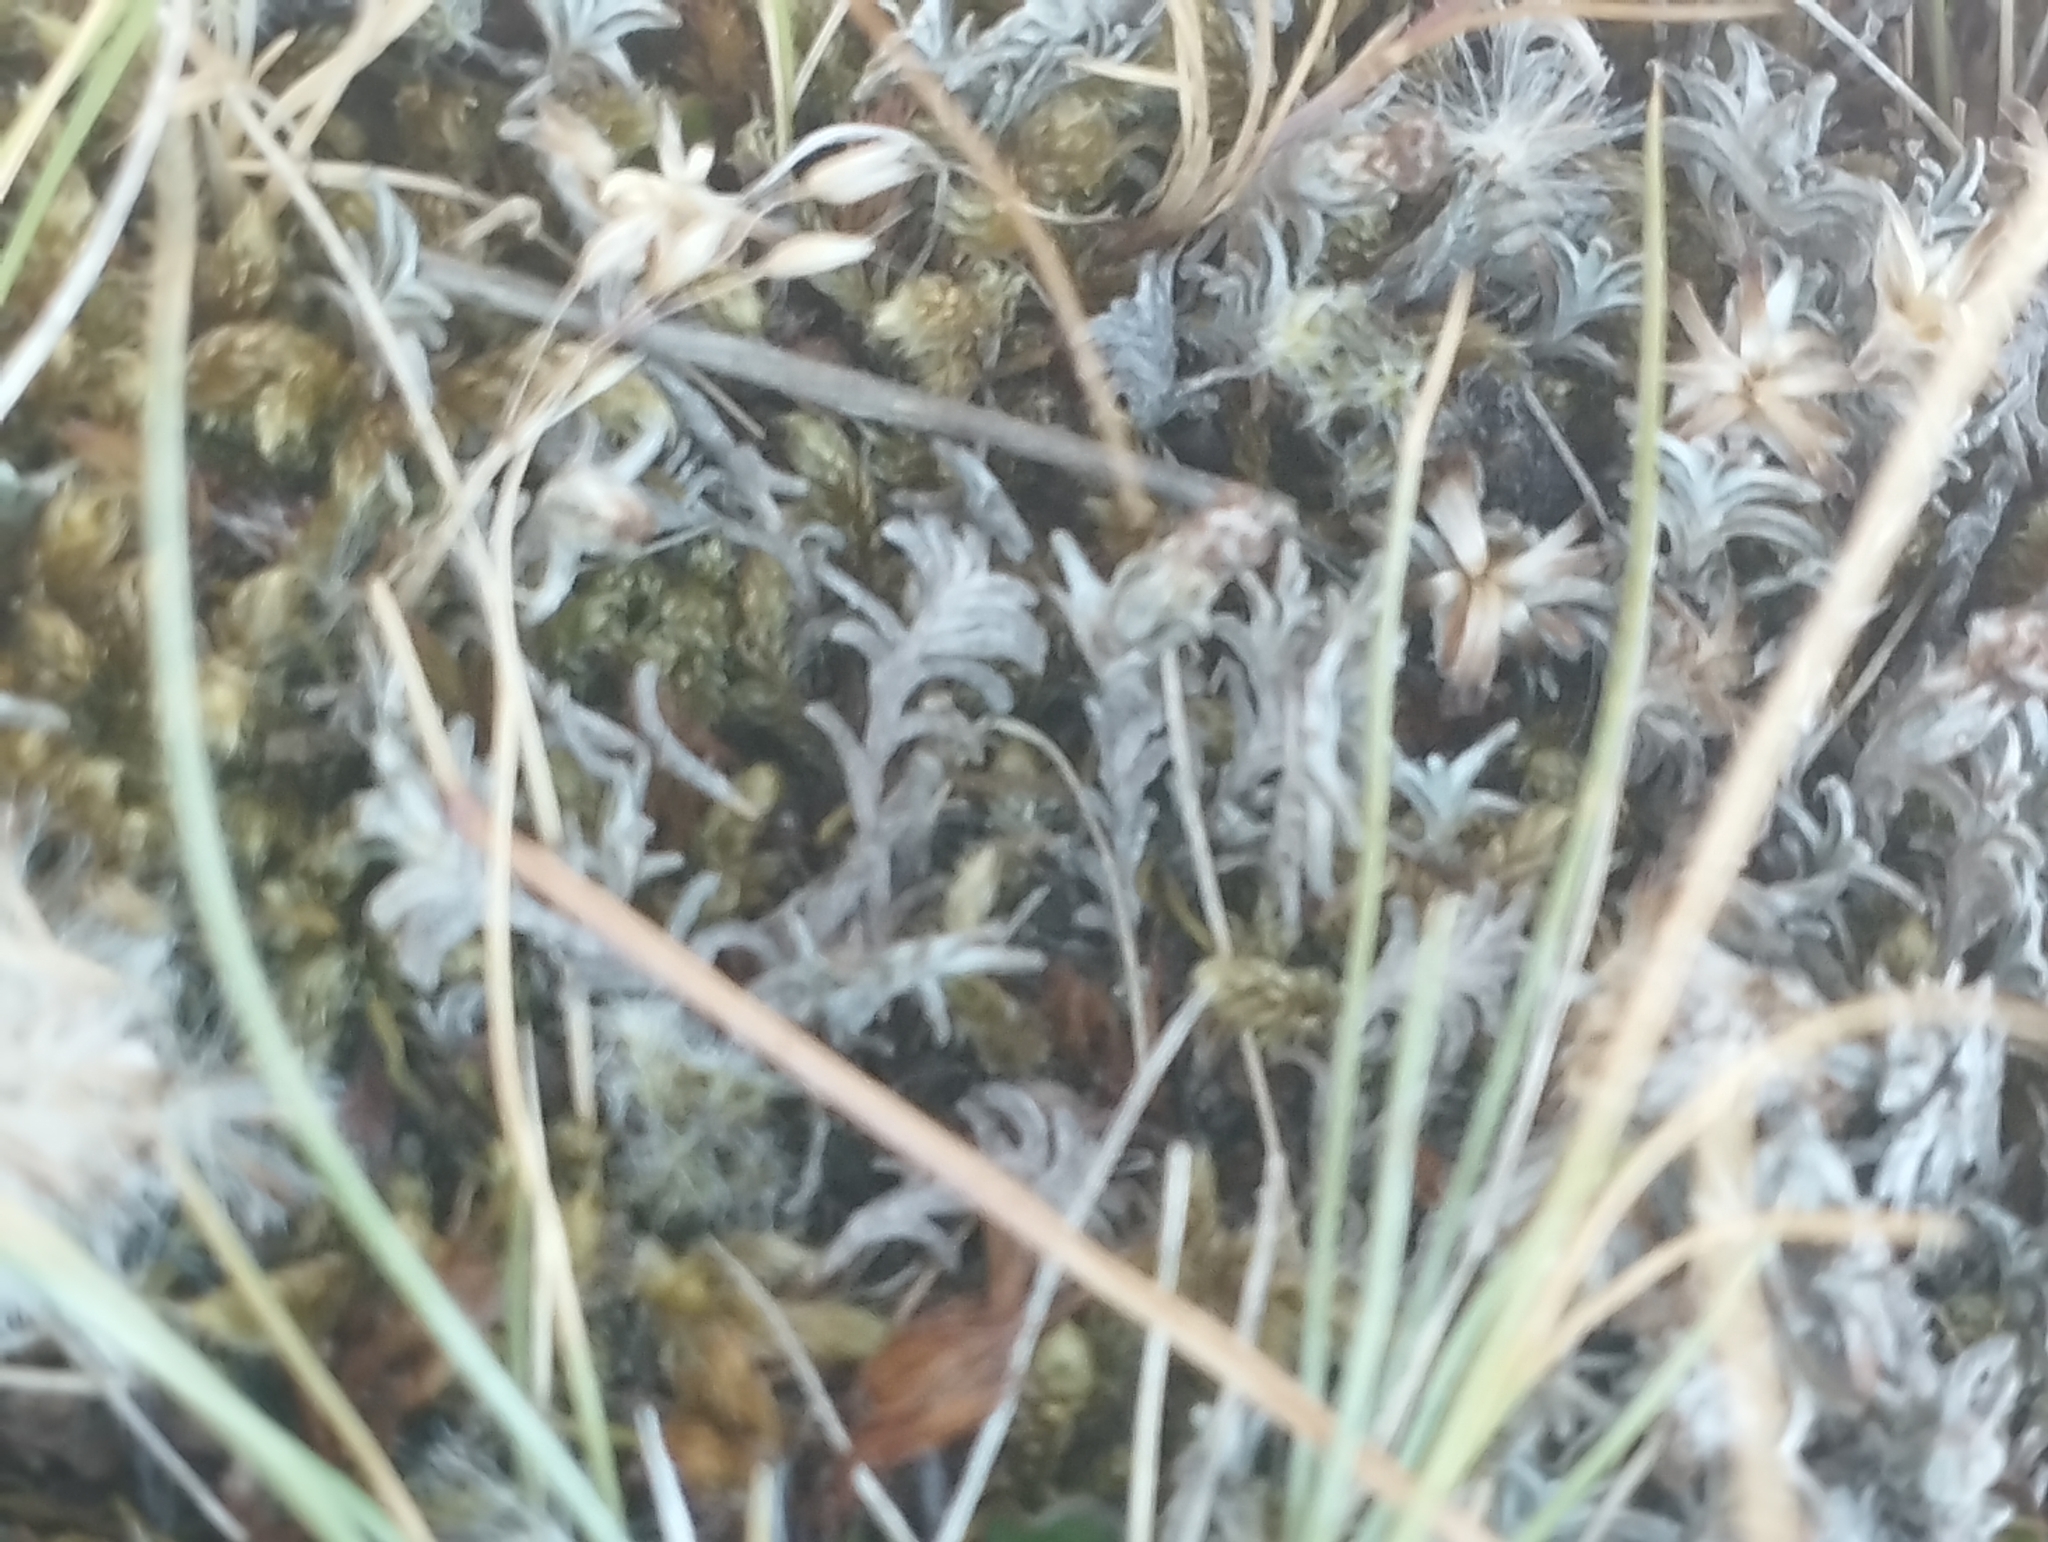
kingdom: Plantae
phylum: Tracheophyta
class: Magnoliopsida
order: Asterales
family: Asteraceae
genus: Raoulia
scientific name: Raoulia monroi
